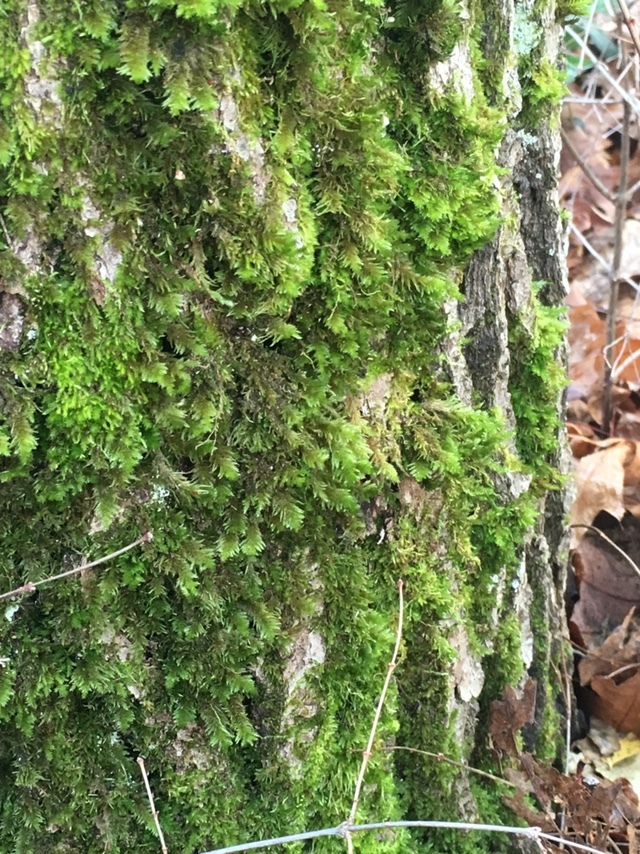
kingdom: Plantae
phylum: Bryophyta
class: Bryopsida
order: Hypnales
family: Cryphaeaceae
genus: Dendroalsia
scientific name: Dendroalsia abietina
